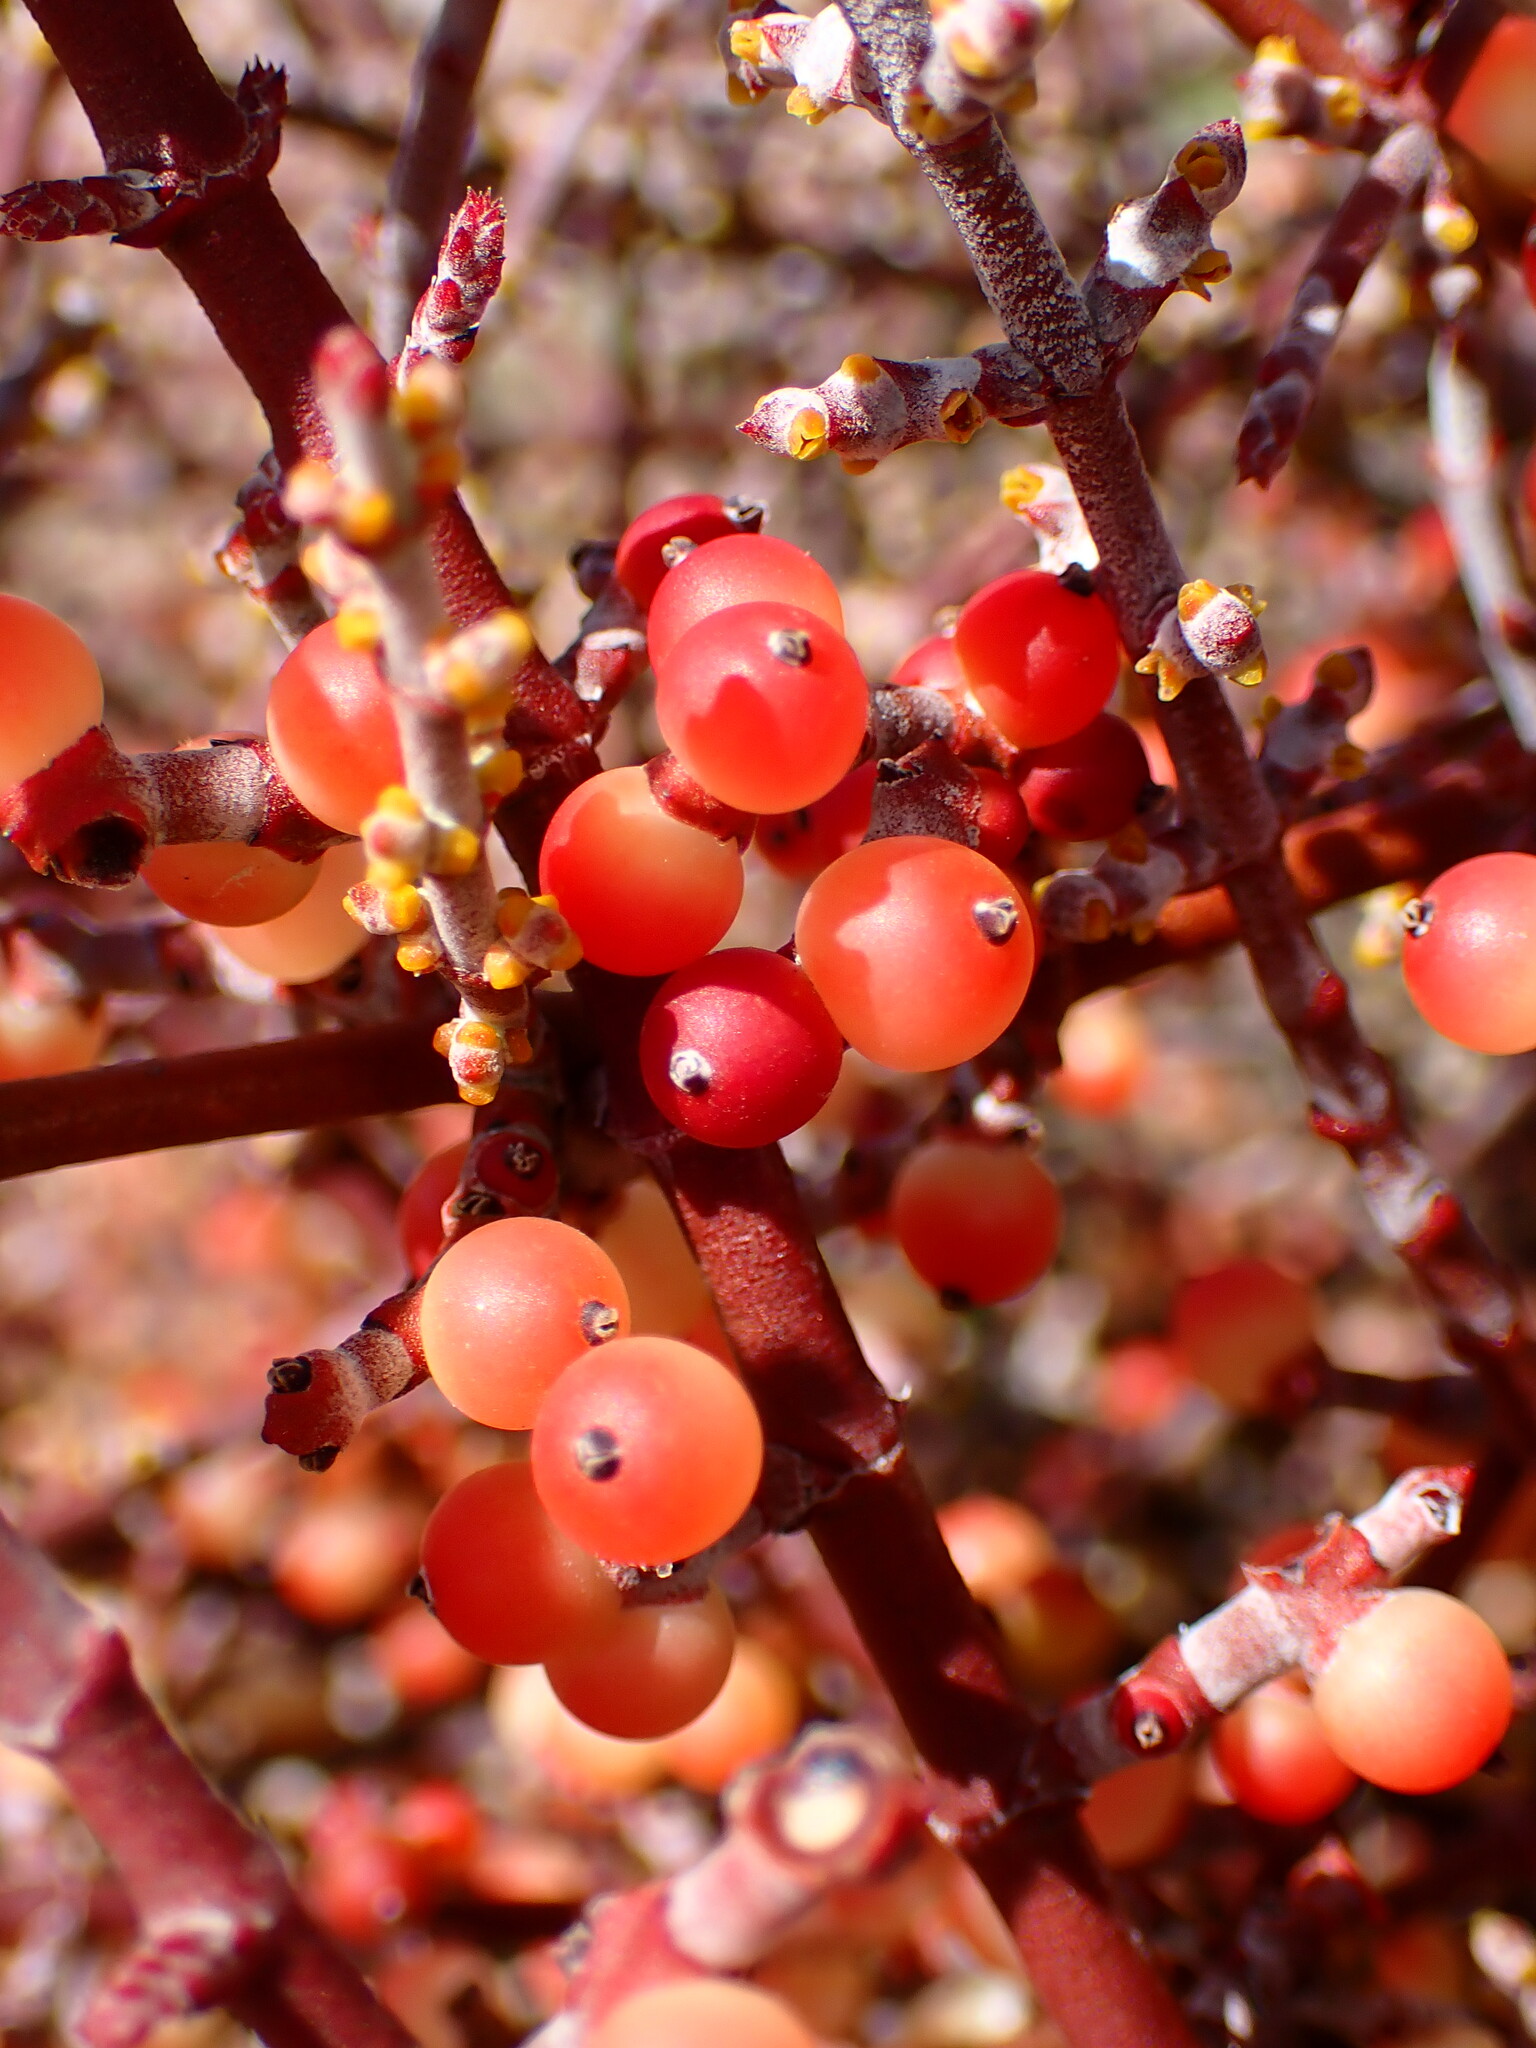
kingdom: Plantae
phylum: Tracheophyta
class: Magnoliopsida
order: Santalales
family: Viscaceae
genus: Phoradendron
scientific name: Phoradendron californicum
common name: Acacia mistletoe
